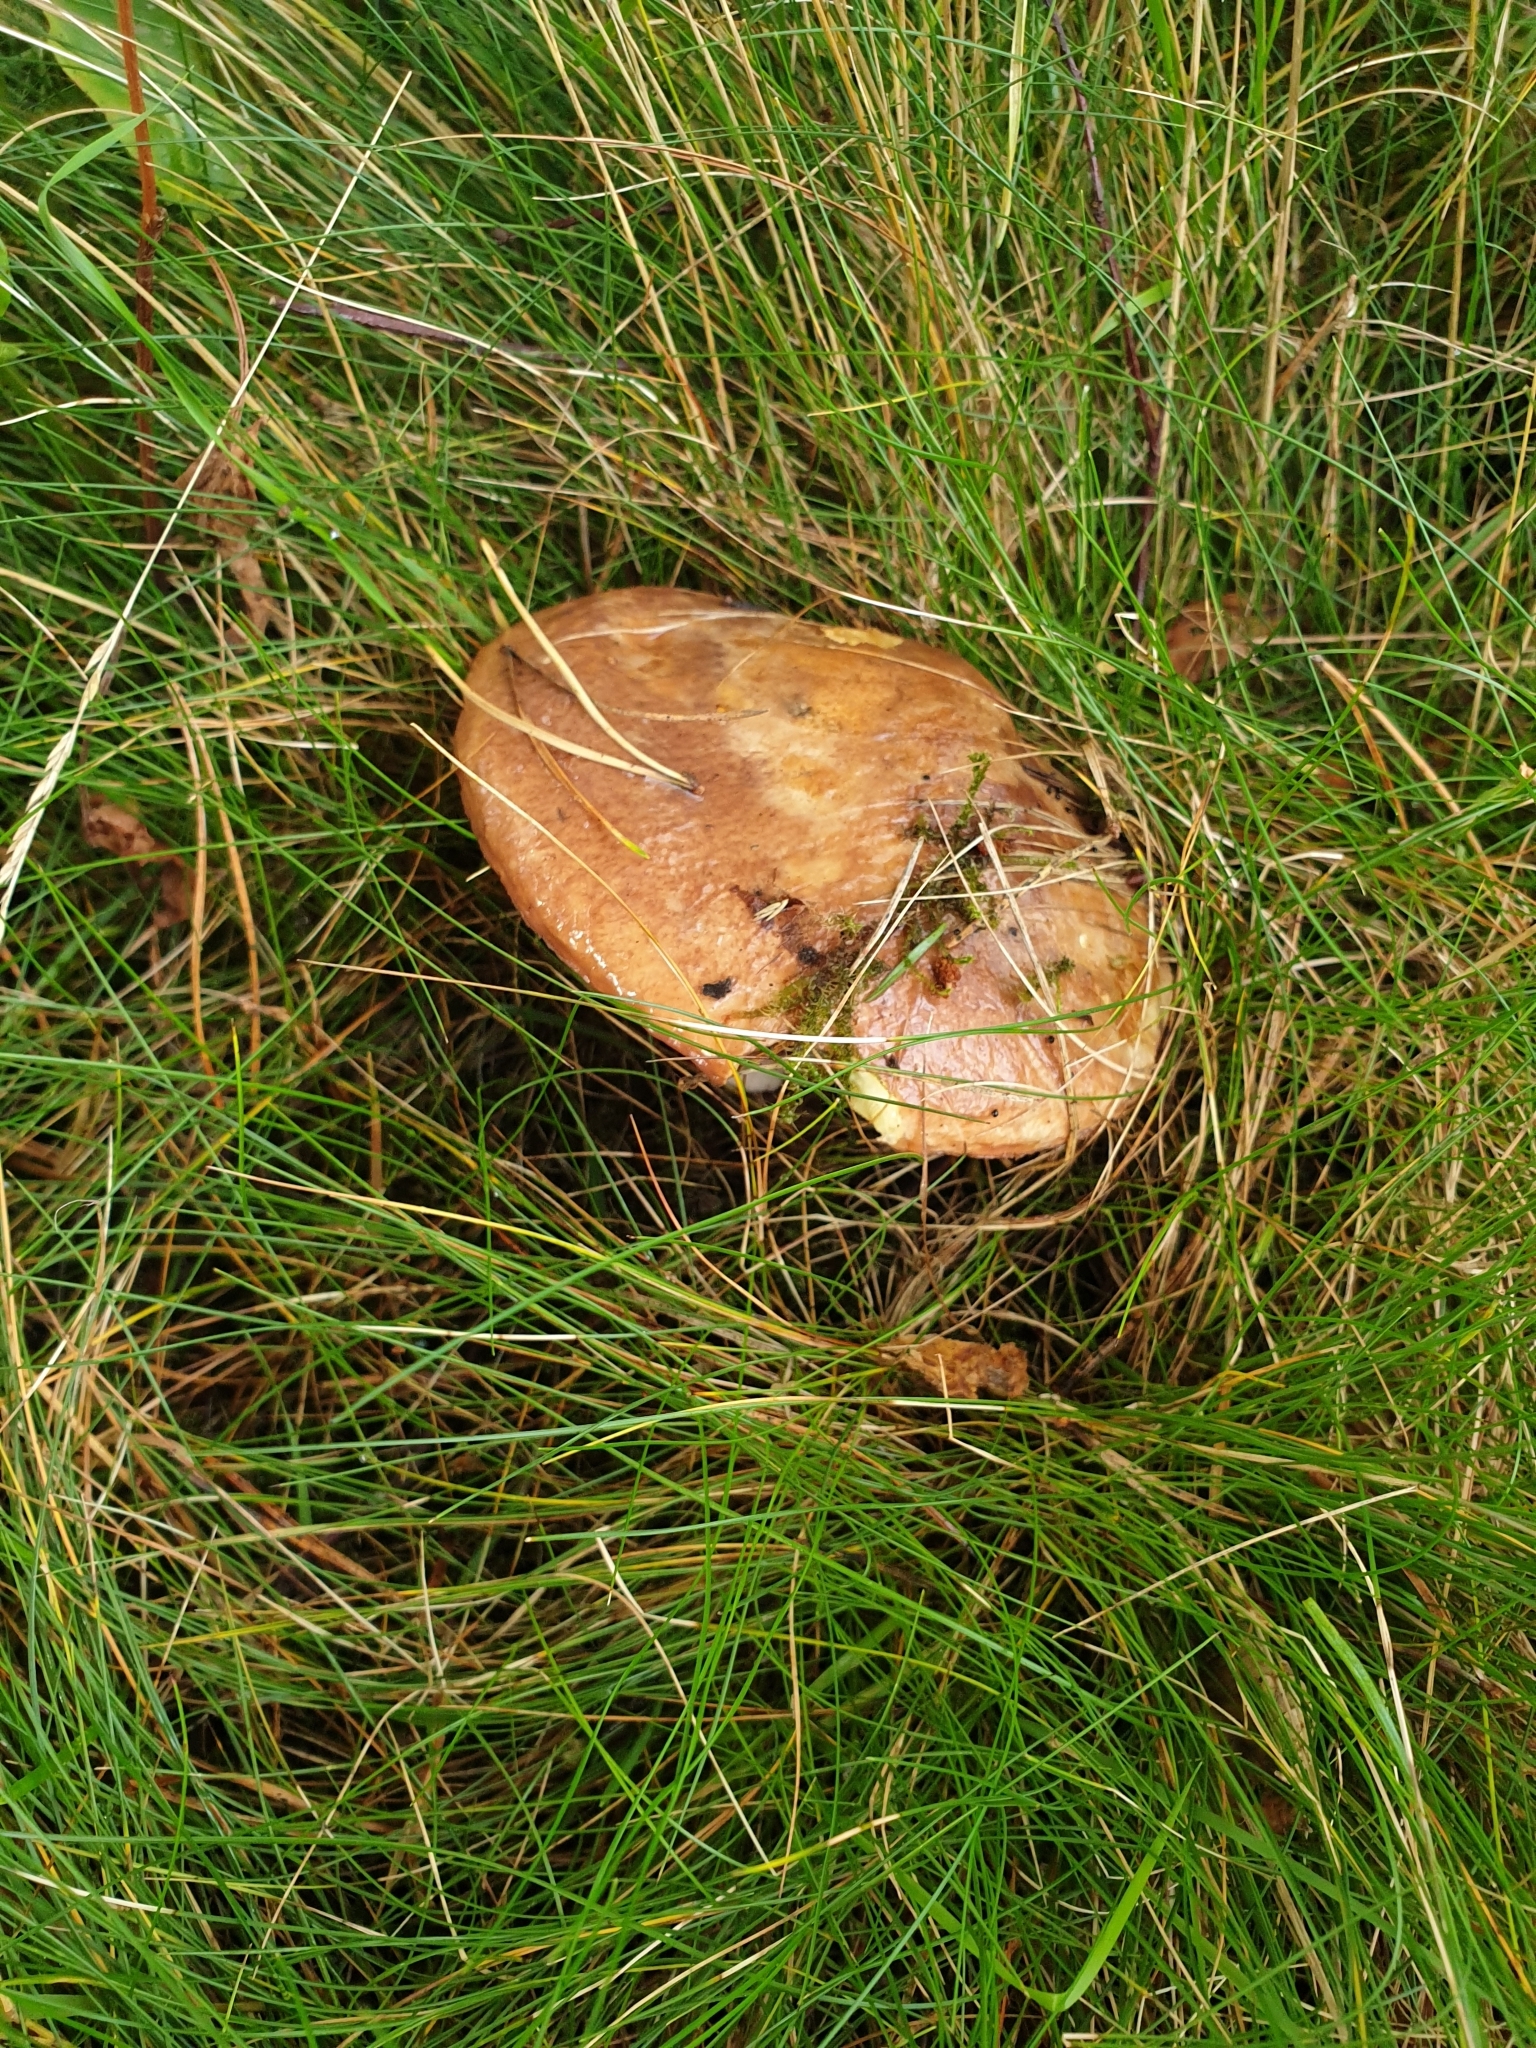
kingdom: Fungi
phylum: Basidiomycota
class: Agaricomycetes
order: Boletales
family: Suillaceae
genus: Suillus
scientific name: Suillus luteus
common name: Slippery jack
